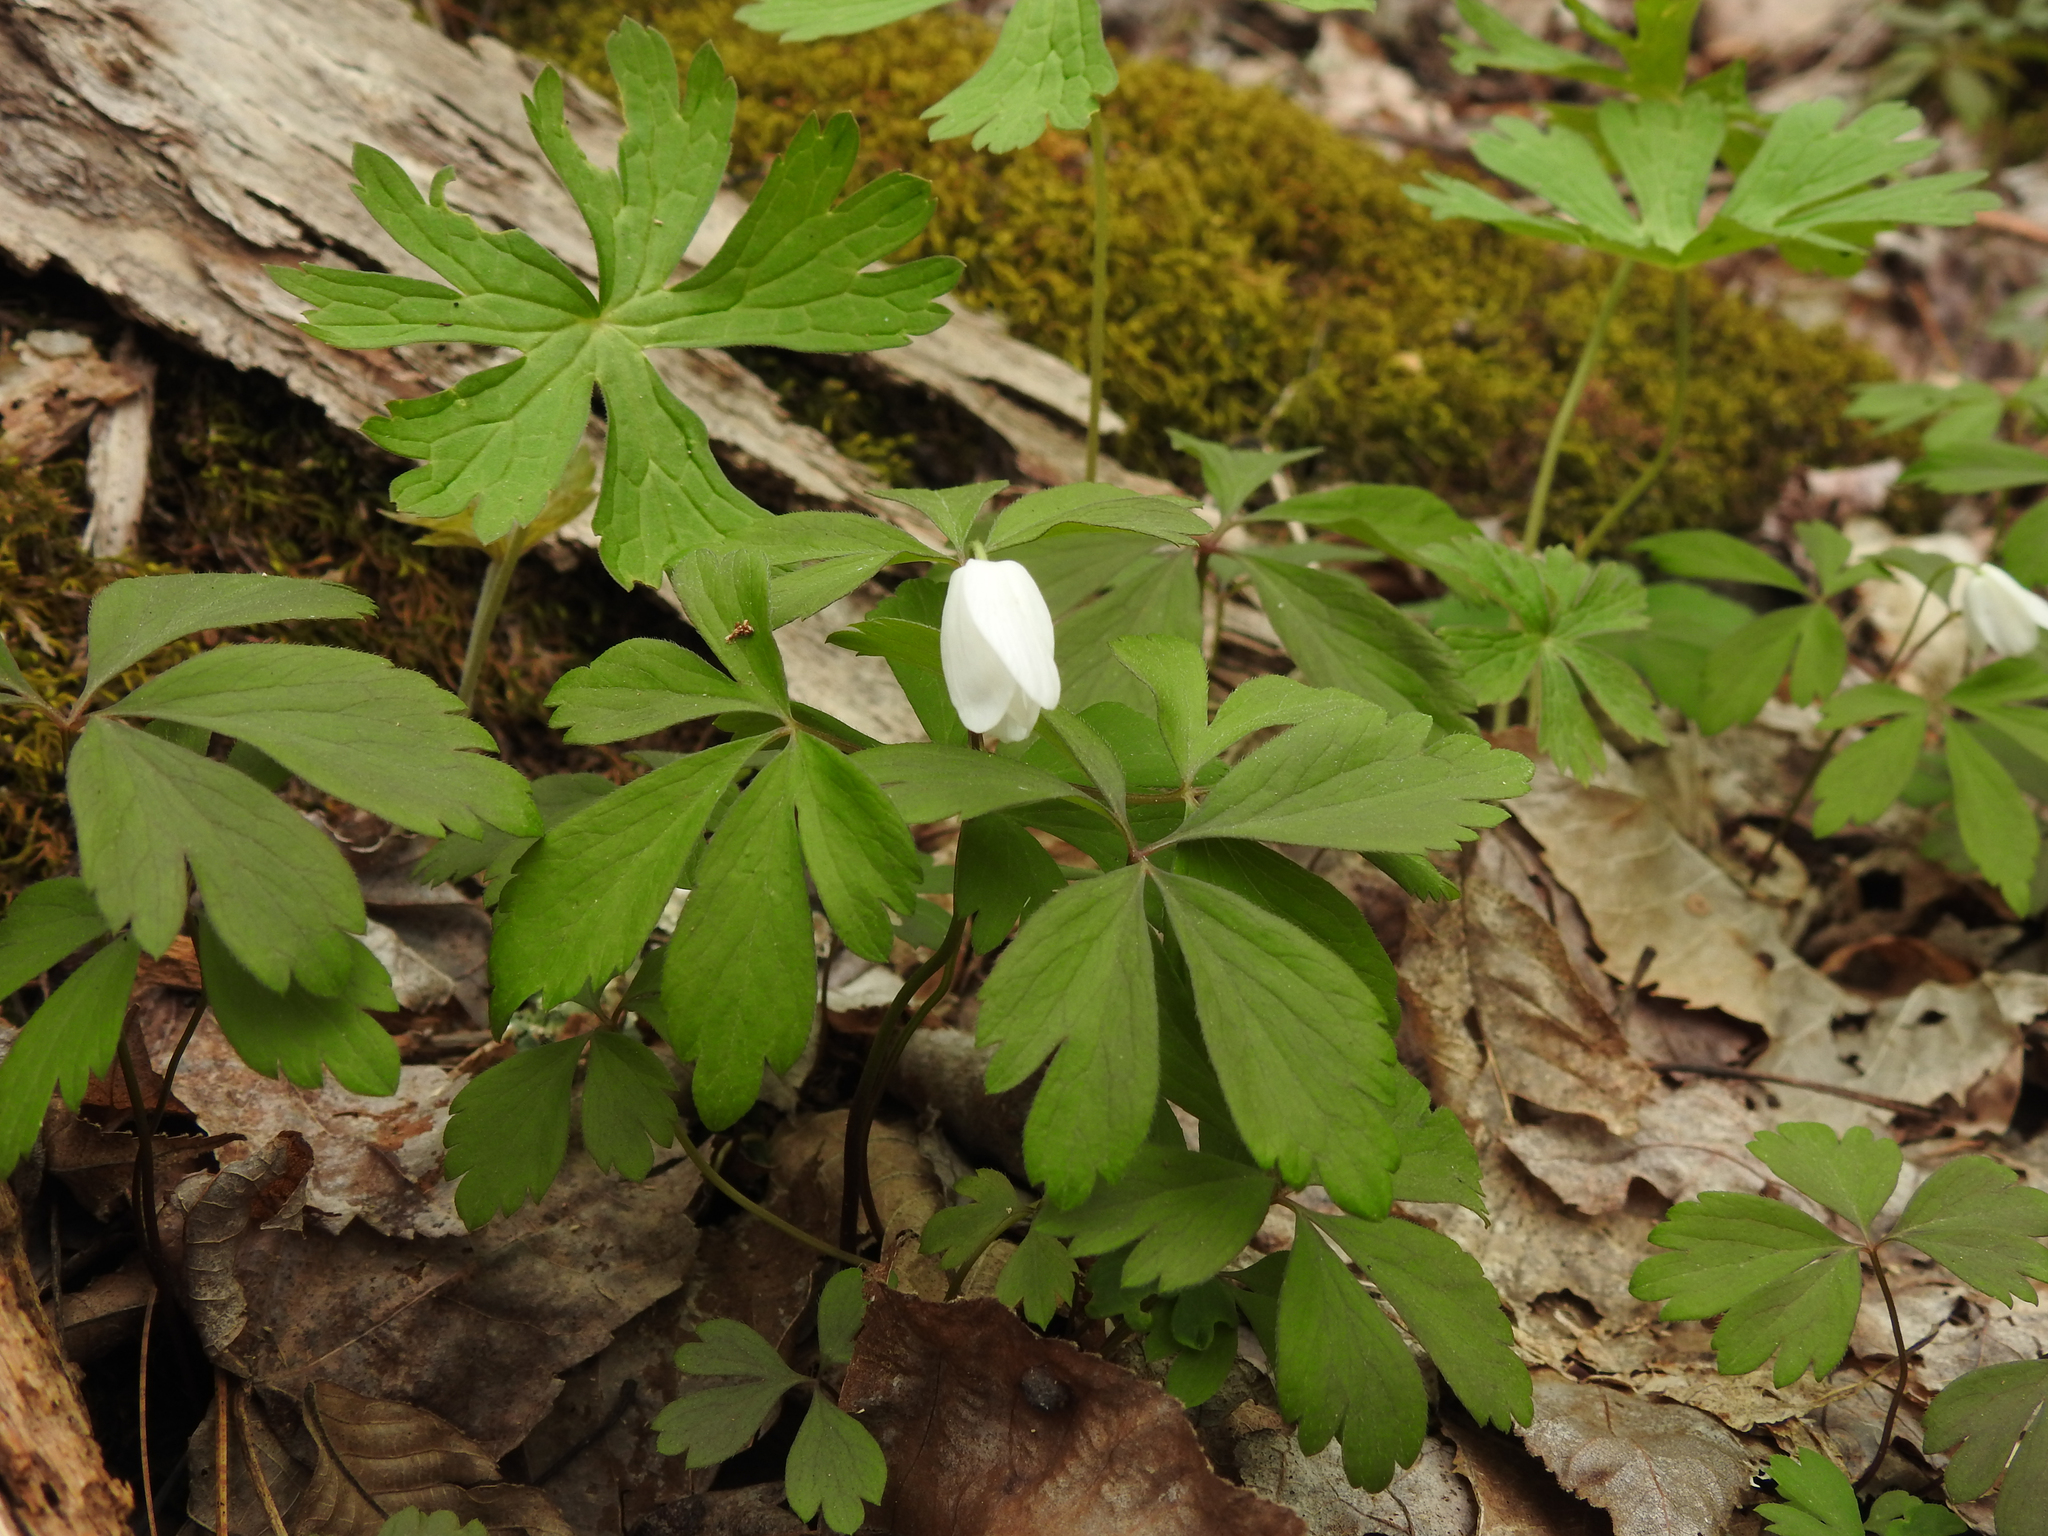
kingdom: Plantae
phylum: Tracheophyta
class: Magnoliopsida
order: Ranunculales
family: Ranunculaceae
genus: Anemone
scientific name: Anemone quinquefolia
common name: Wood anemone
